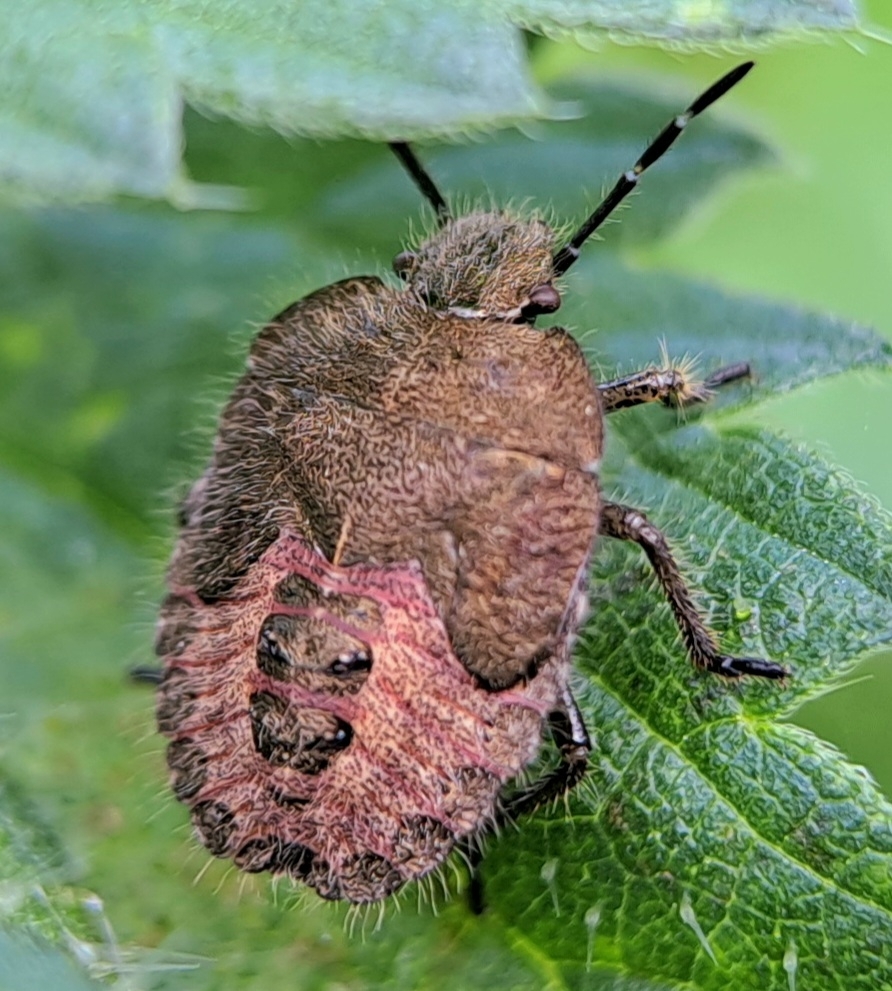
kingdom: Animalia
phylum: Arthropoda
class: Insecta
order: Hemiptera
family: Pentatomidae
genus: Dolycoris
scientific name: Dolycoris baccarum
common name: Sloe bug
